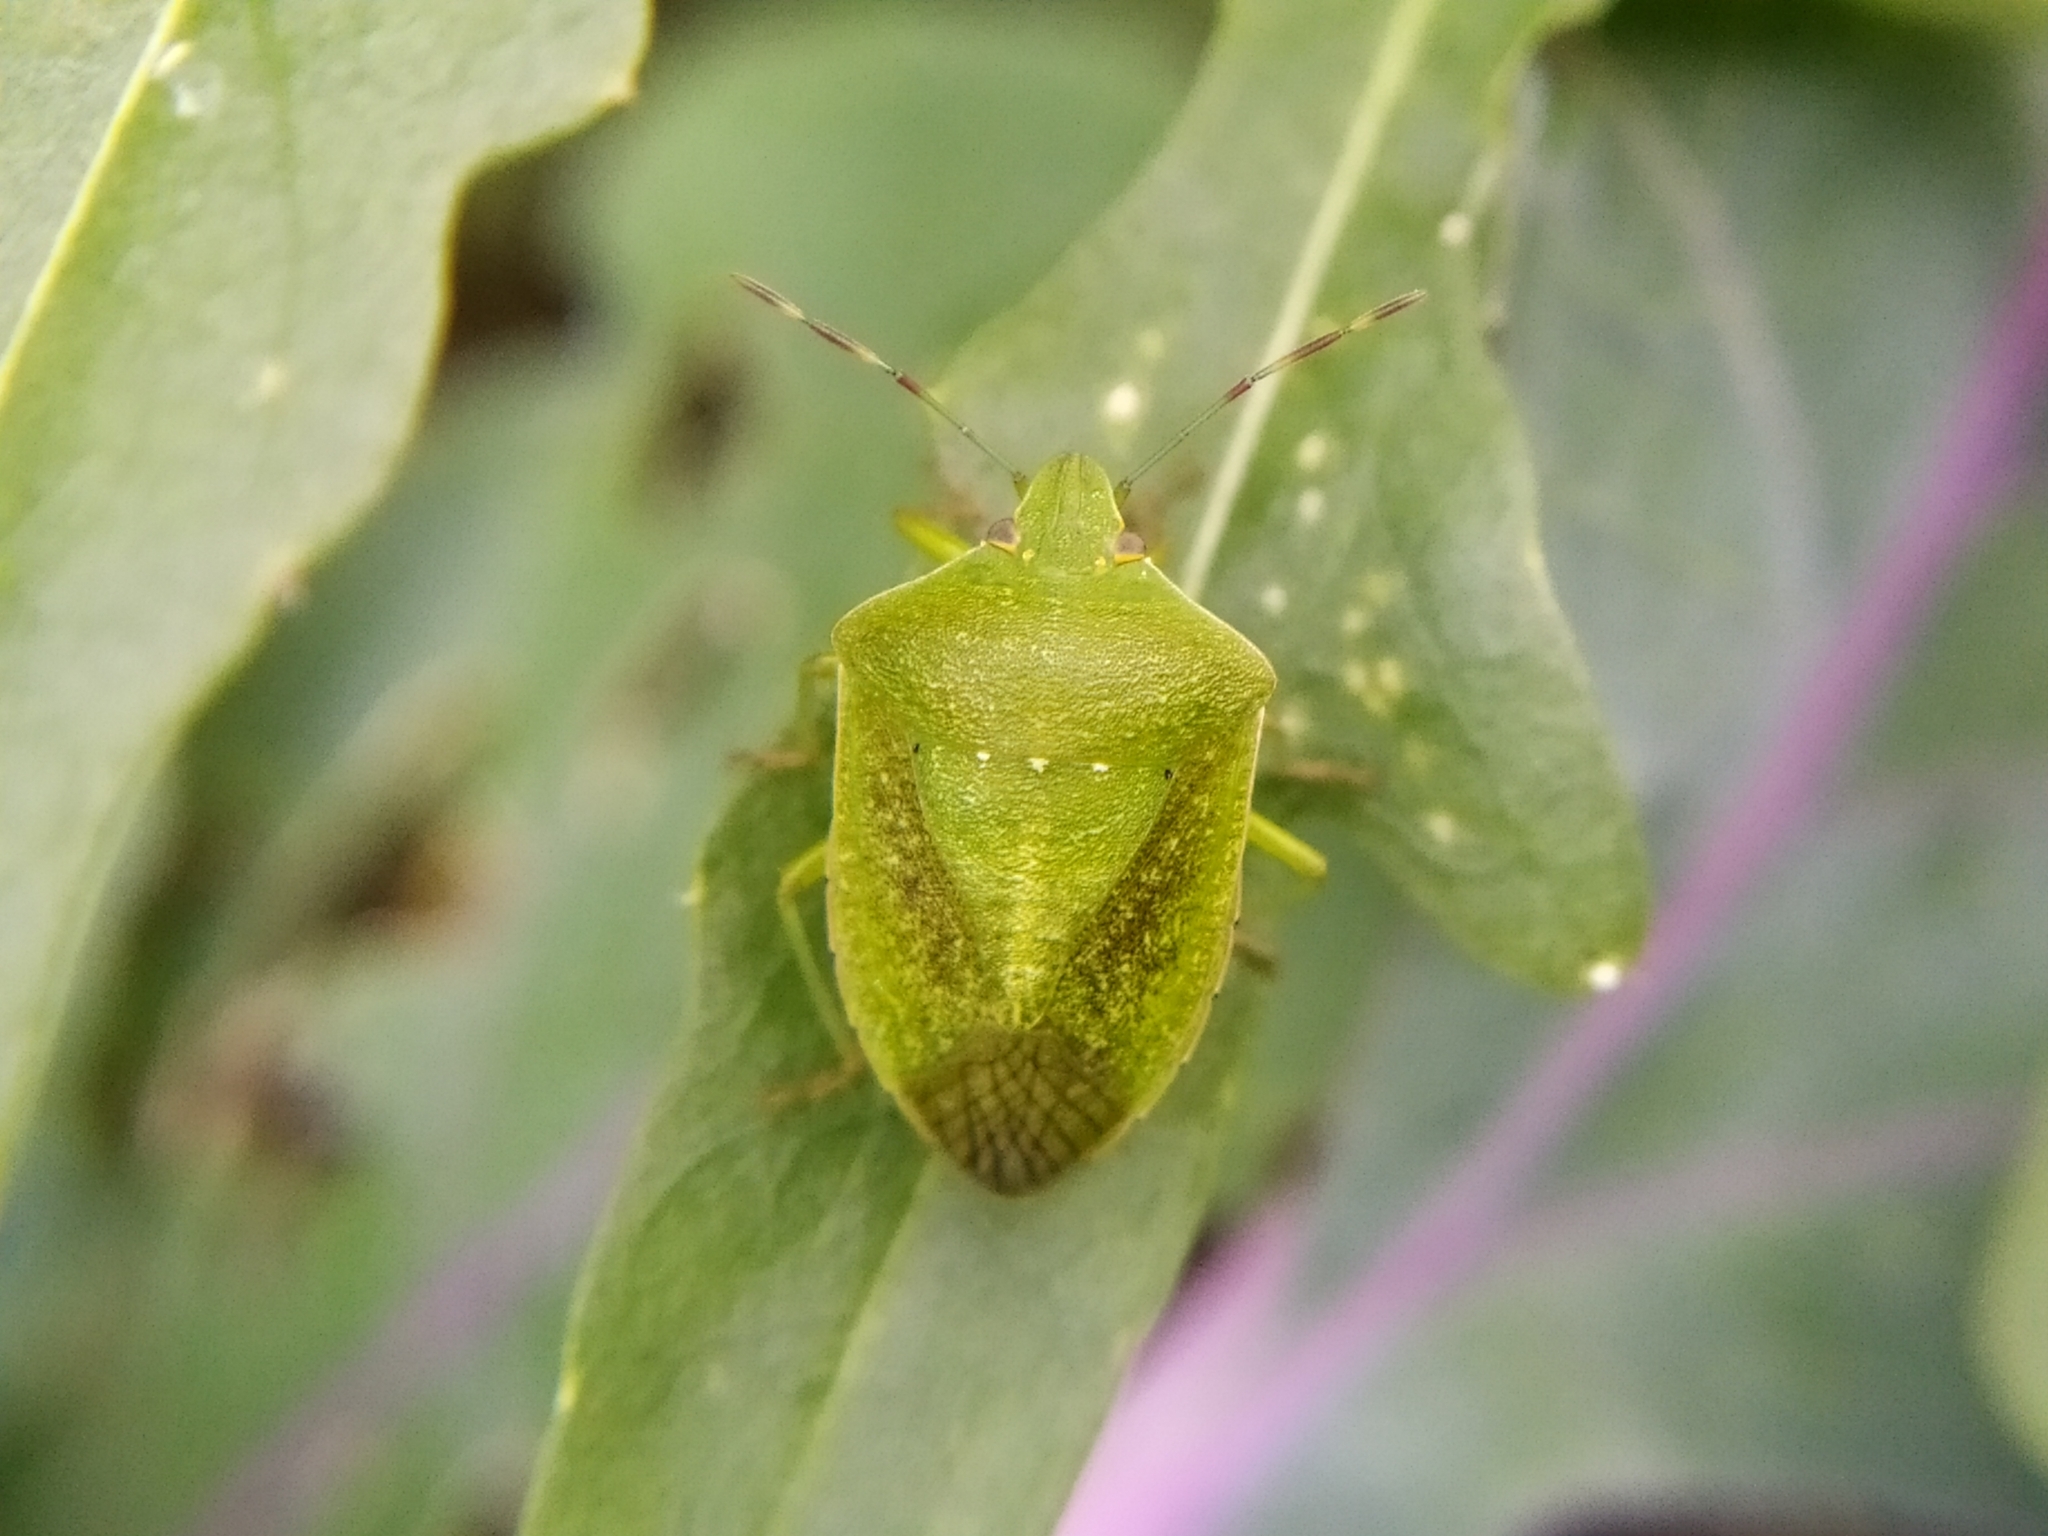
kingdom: Animalia
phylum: Arthropoda
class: Insecta
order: Hemiptera
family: Pentatomidae
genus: Nezara
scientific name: Nezara viridula
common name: Southern green stink bug
